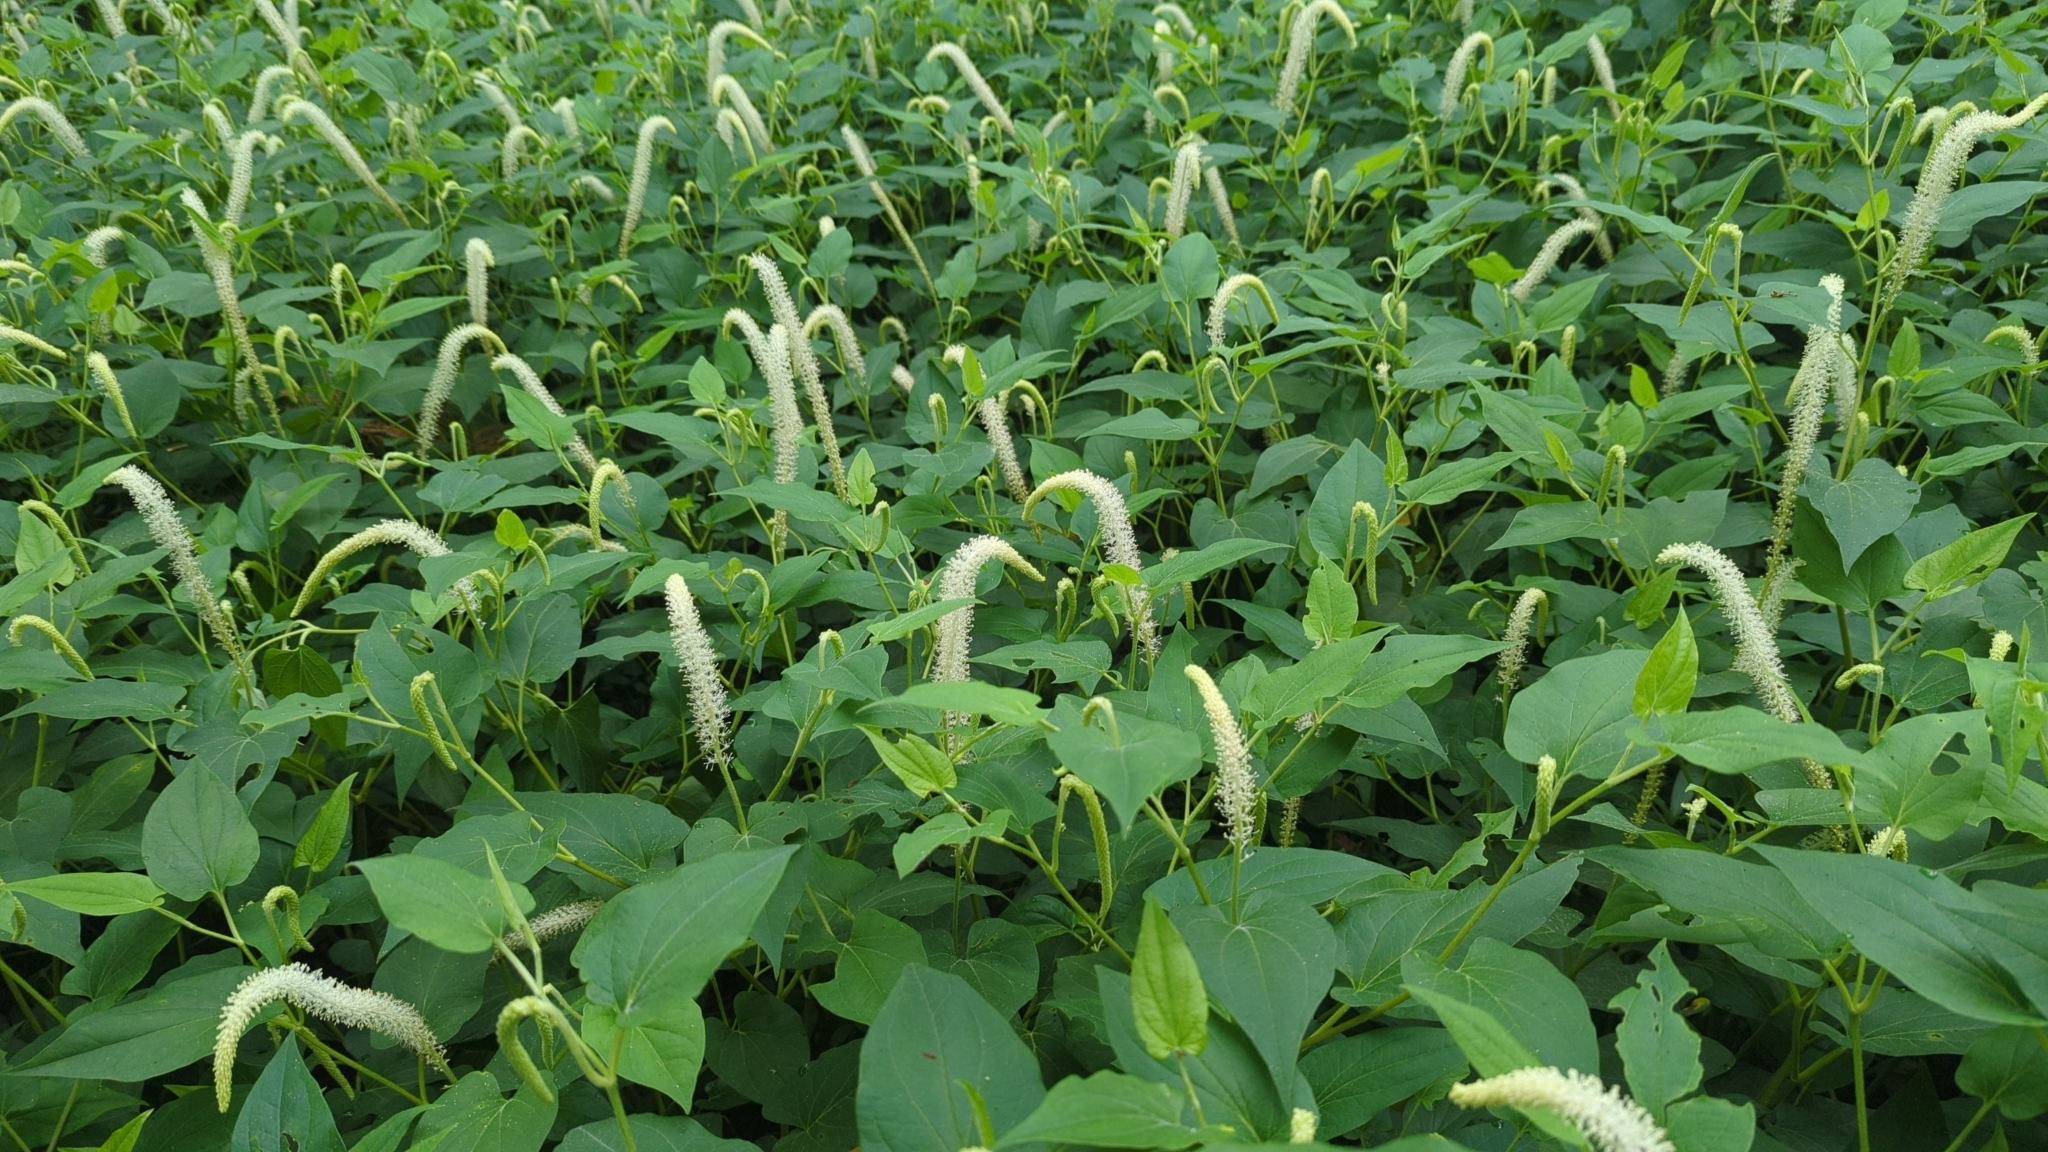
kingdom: Plantae
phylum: Tracheophyta
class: Magnoliopsida
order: Piperales
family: Saururaceae
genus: Saururus
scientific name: Saururus cernuus
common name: Lizard's-tail
